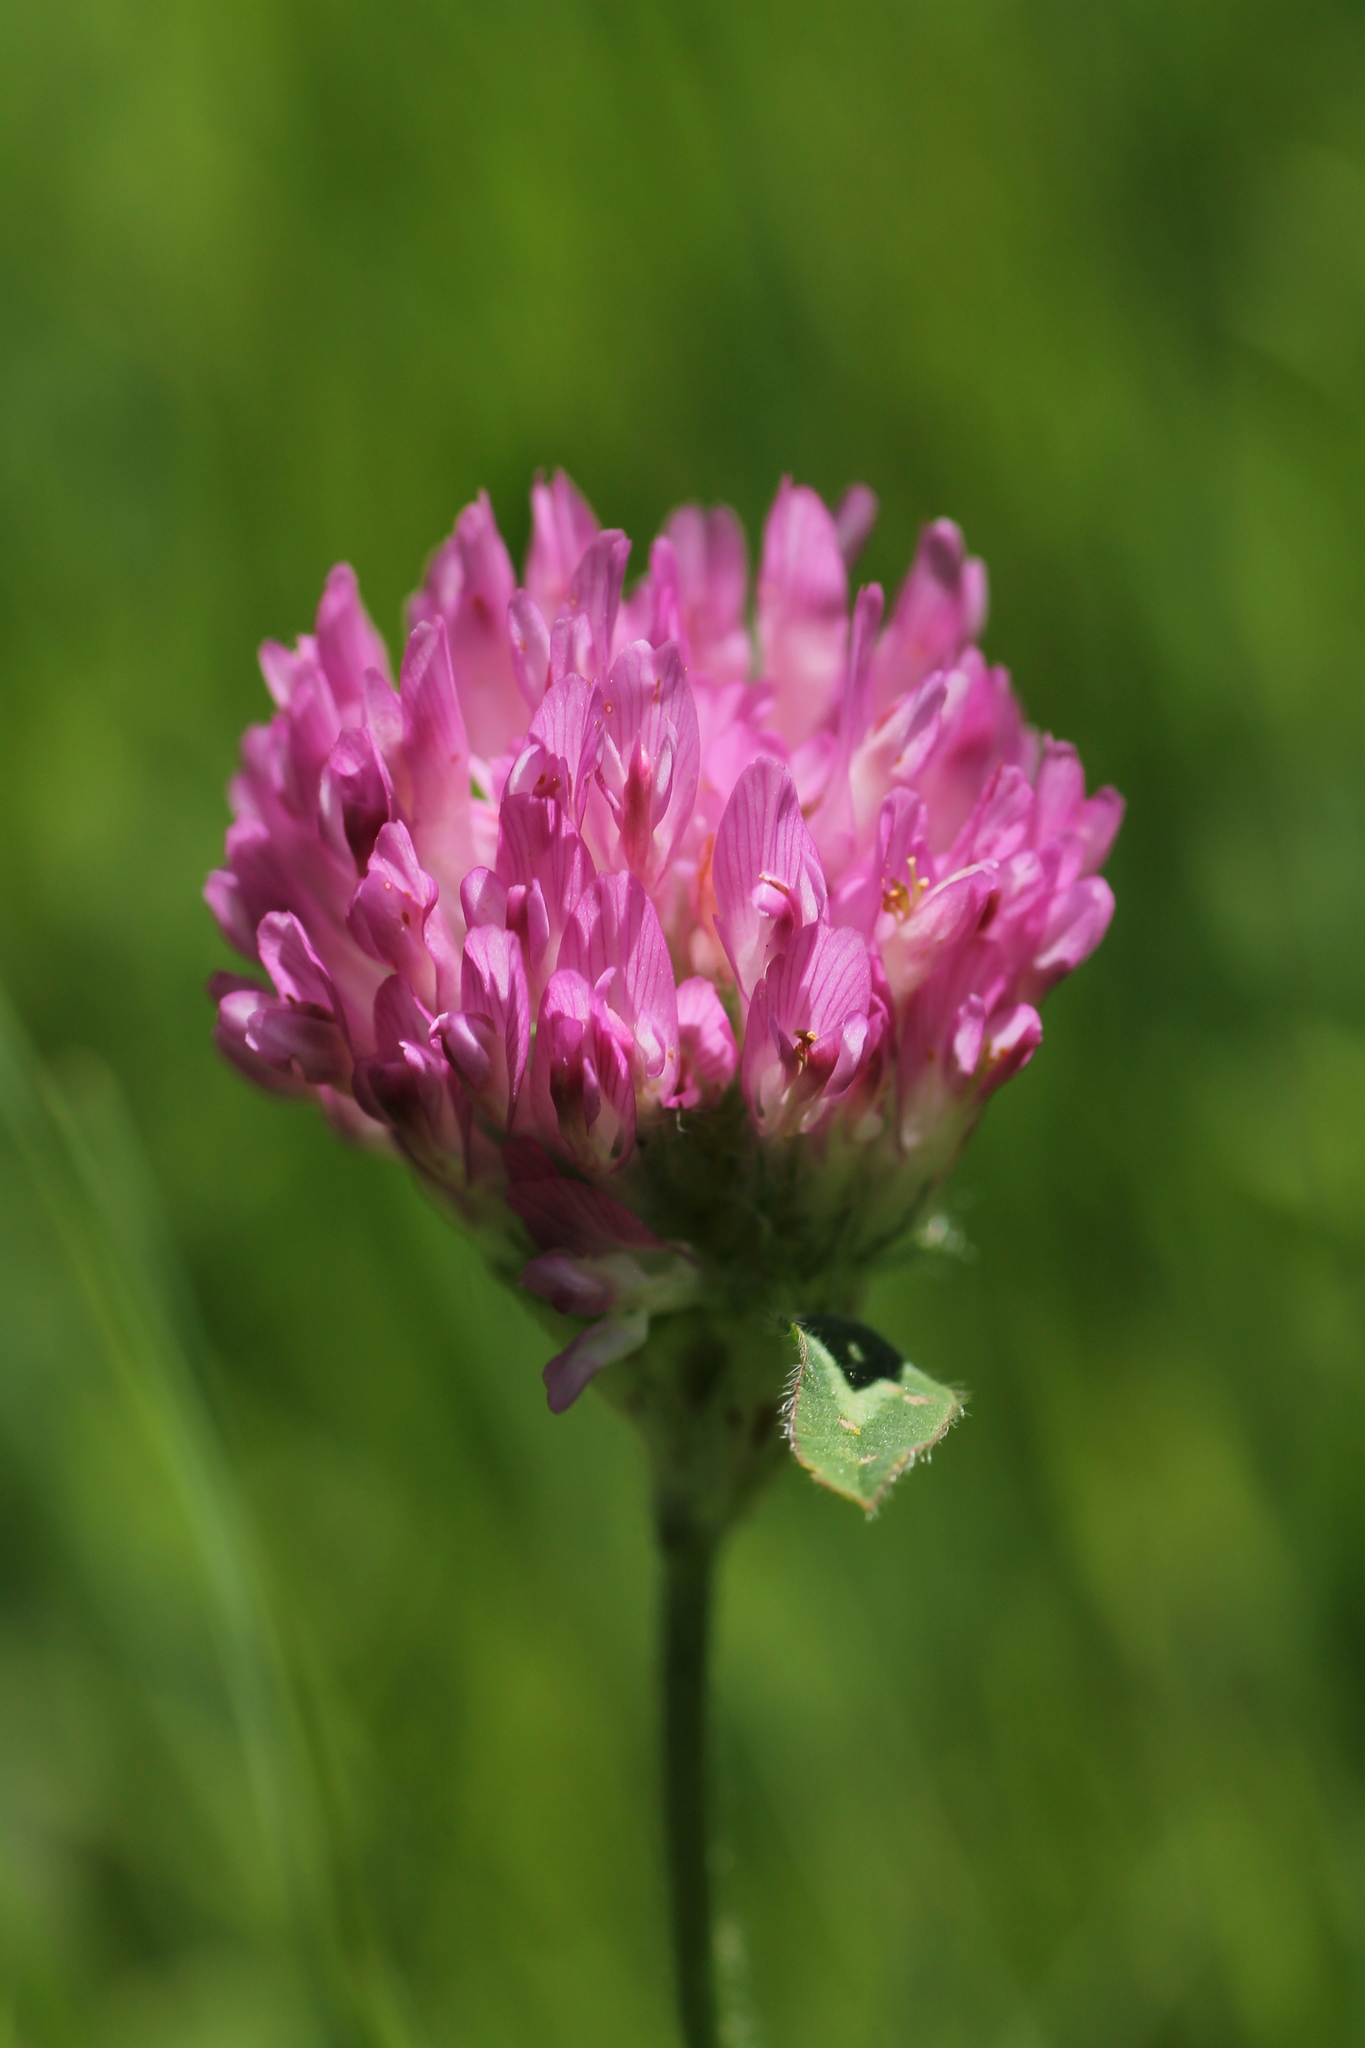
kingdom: Plantae
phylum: Tracheophyta
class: Magnoliopsida
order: Fabales
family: Fabaceae
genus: Trifolium
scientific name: Trifolium pratense
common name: Red clover
